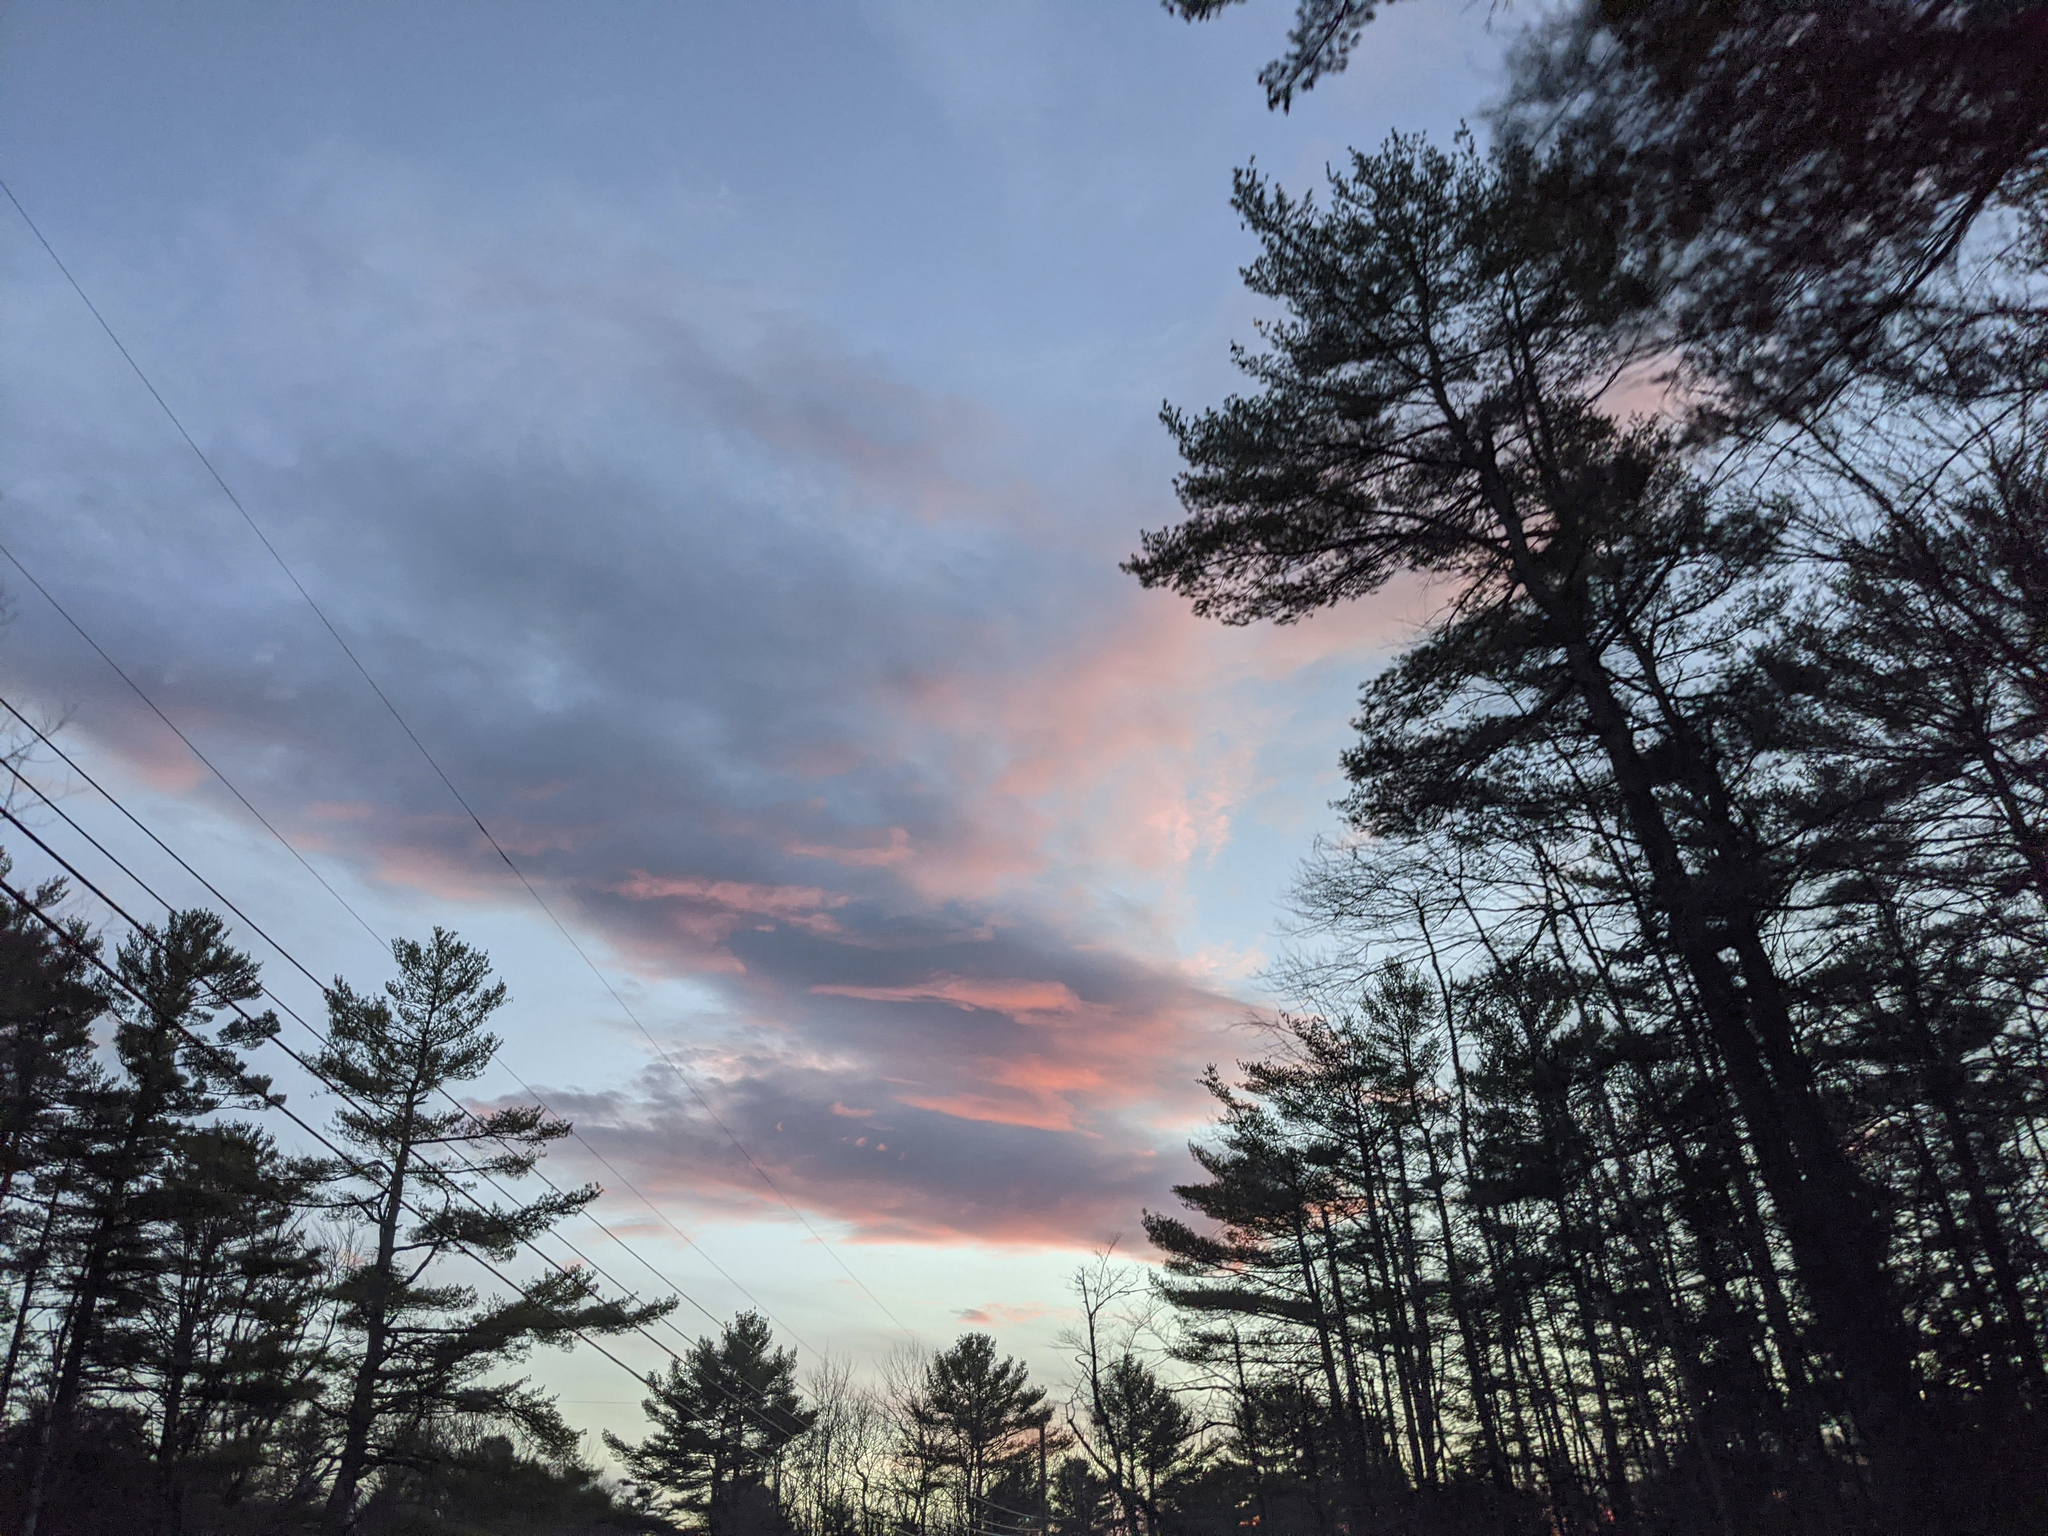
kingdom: Plantae
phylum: Tracheophyta
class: Pinopsida
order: Pinales
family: Pinaceae
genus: Pinus
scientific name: Pinus strobus
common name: Weymouth pine
